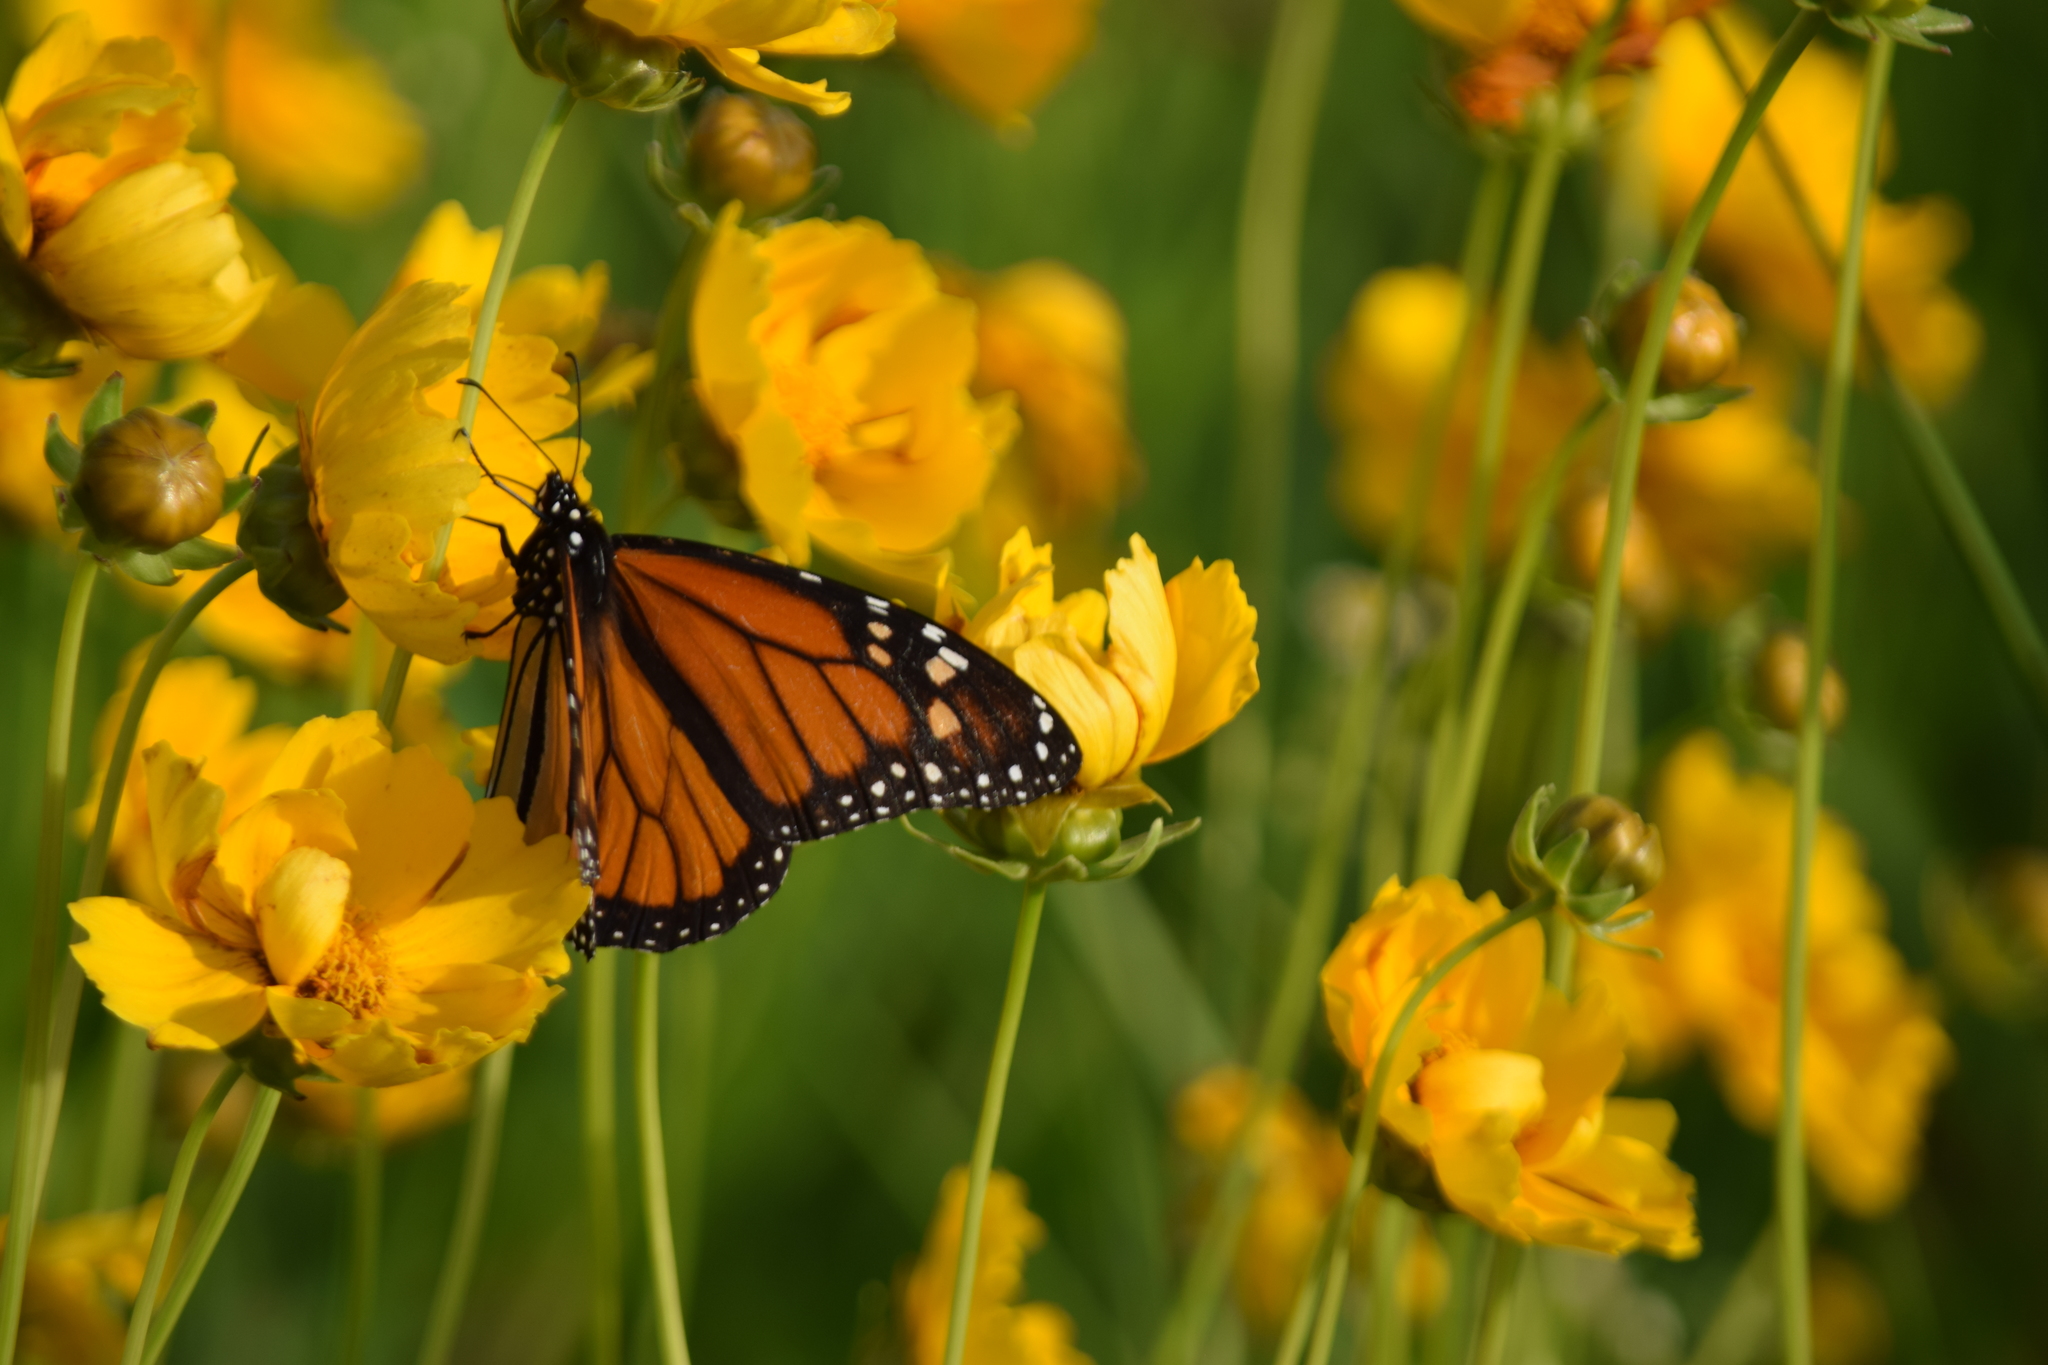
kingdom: Animalia
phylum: Arthropoda
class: Insecta
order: Lepidoptera
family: Nymphalidae
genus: Danaus
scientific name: Danaus plexippus
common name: Monarch
